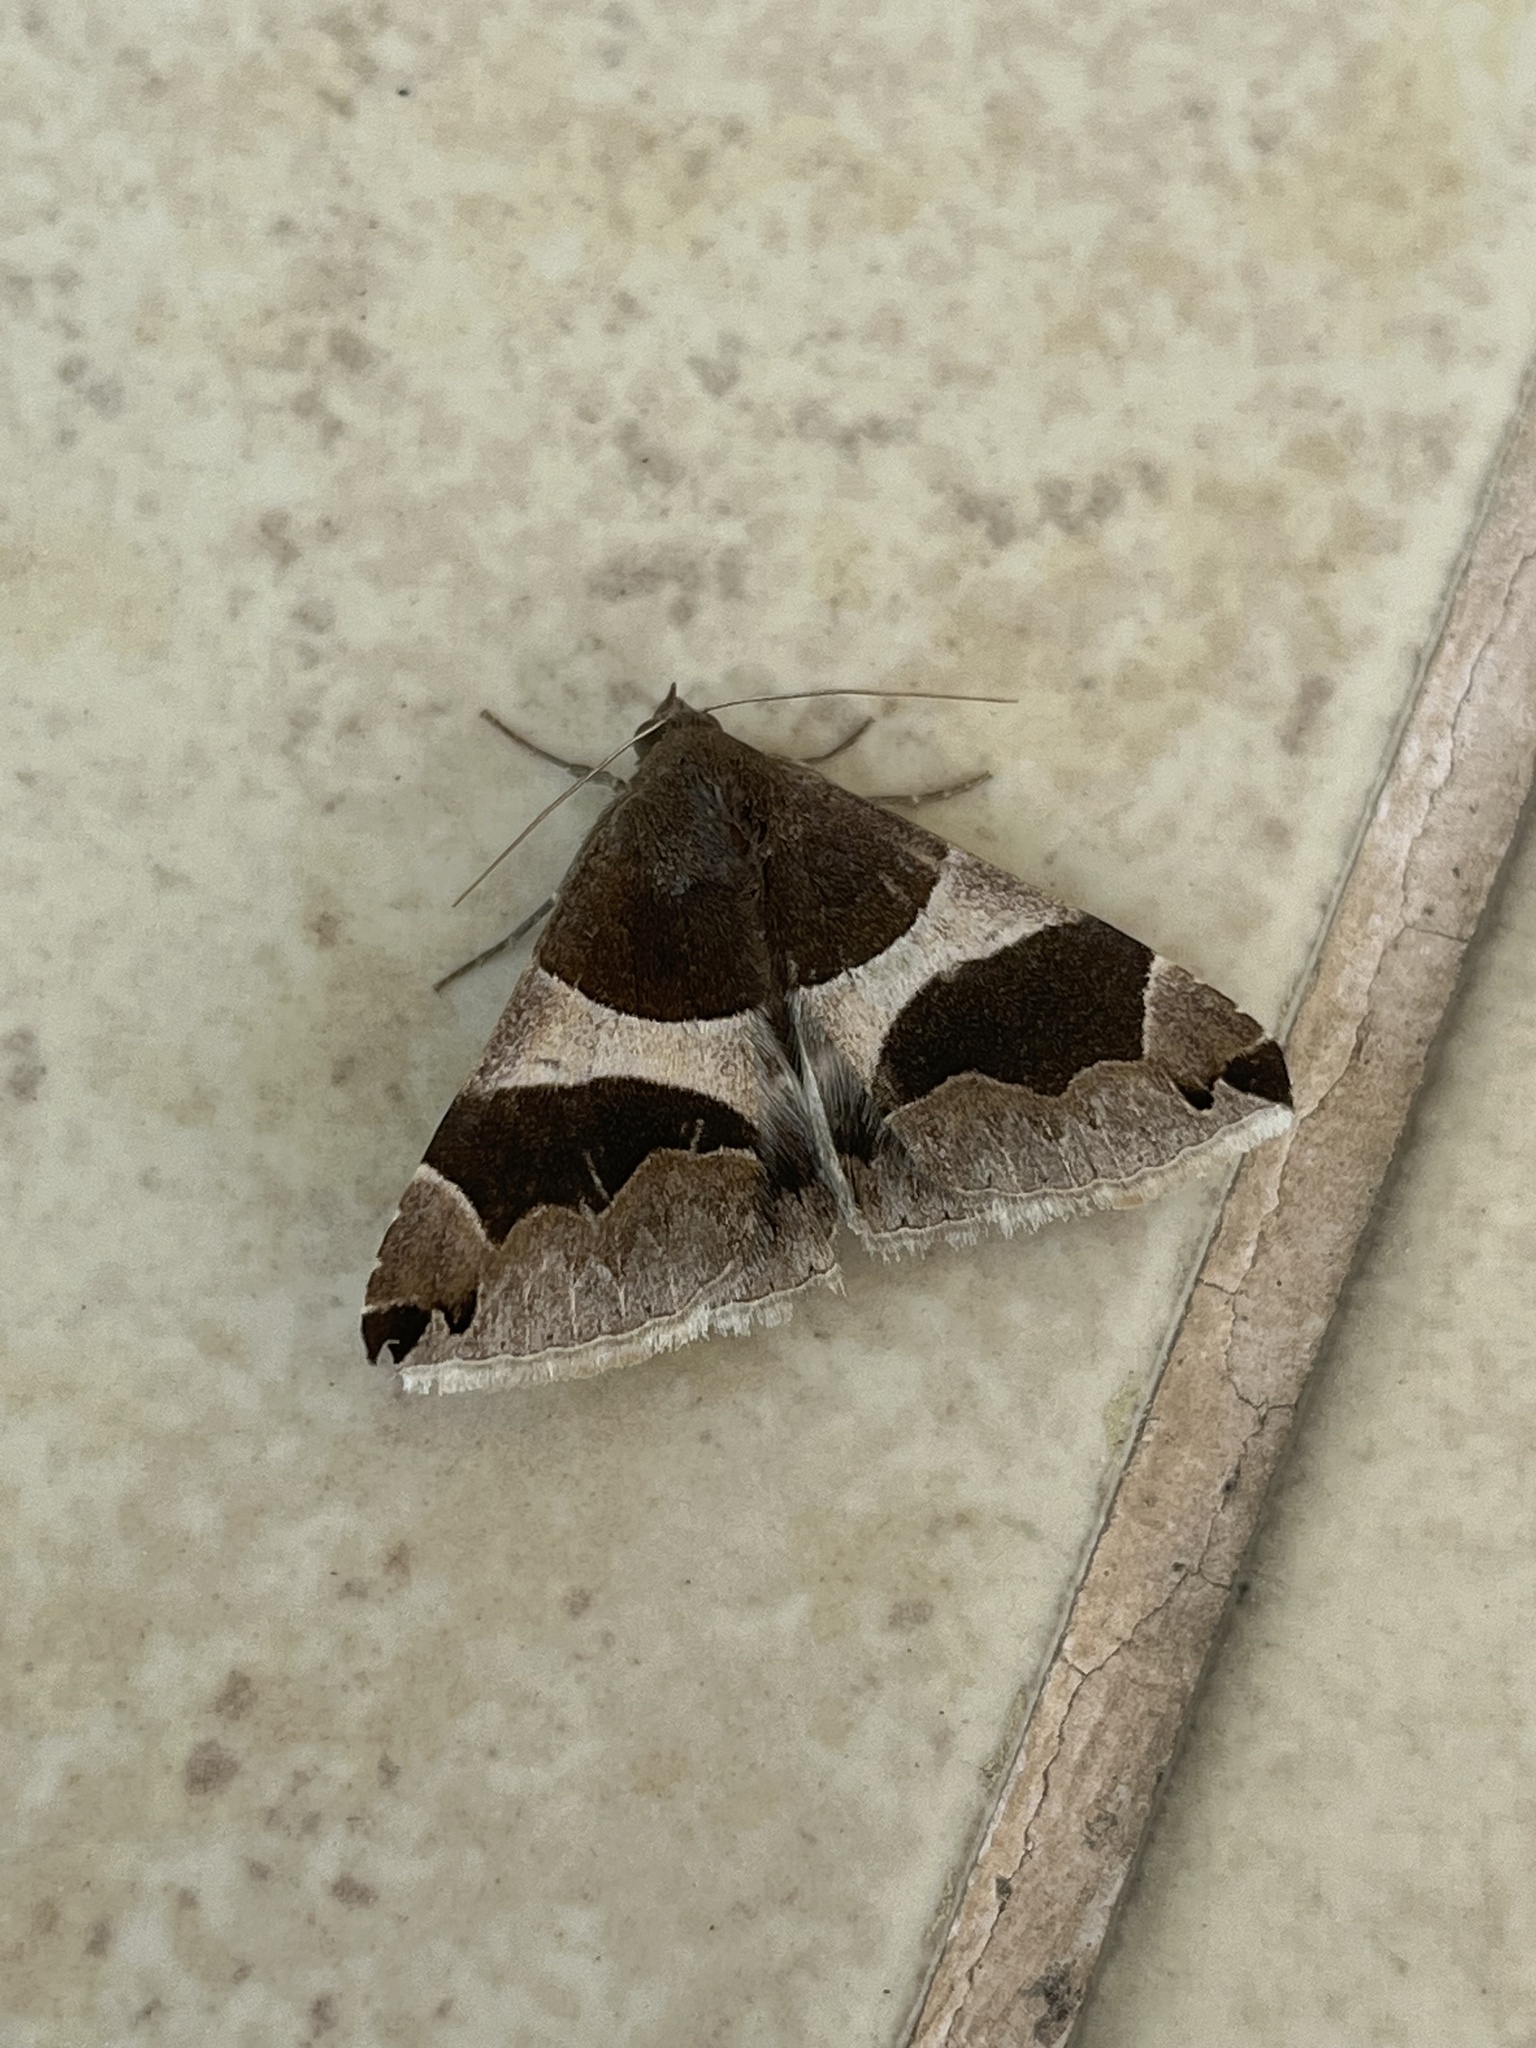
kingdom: Animalia
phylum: Arthropoda
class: Insecta
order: Lepidoptera
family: Erebidae
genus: Dysgonia
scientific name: Dysgonia algira
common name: Passenger
